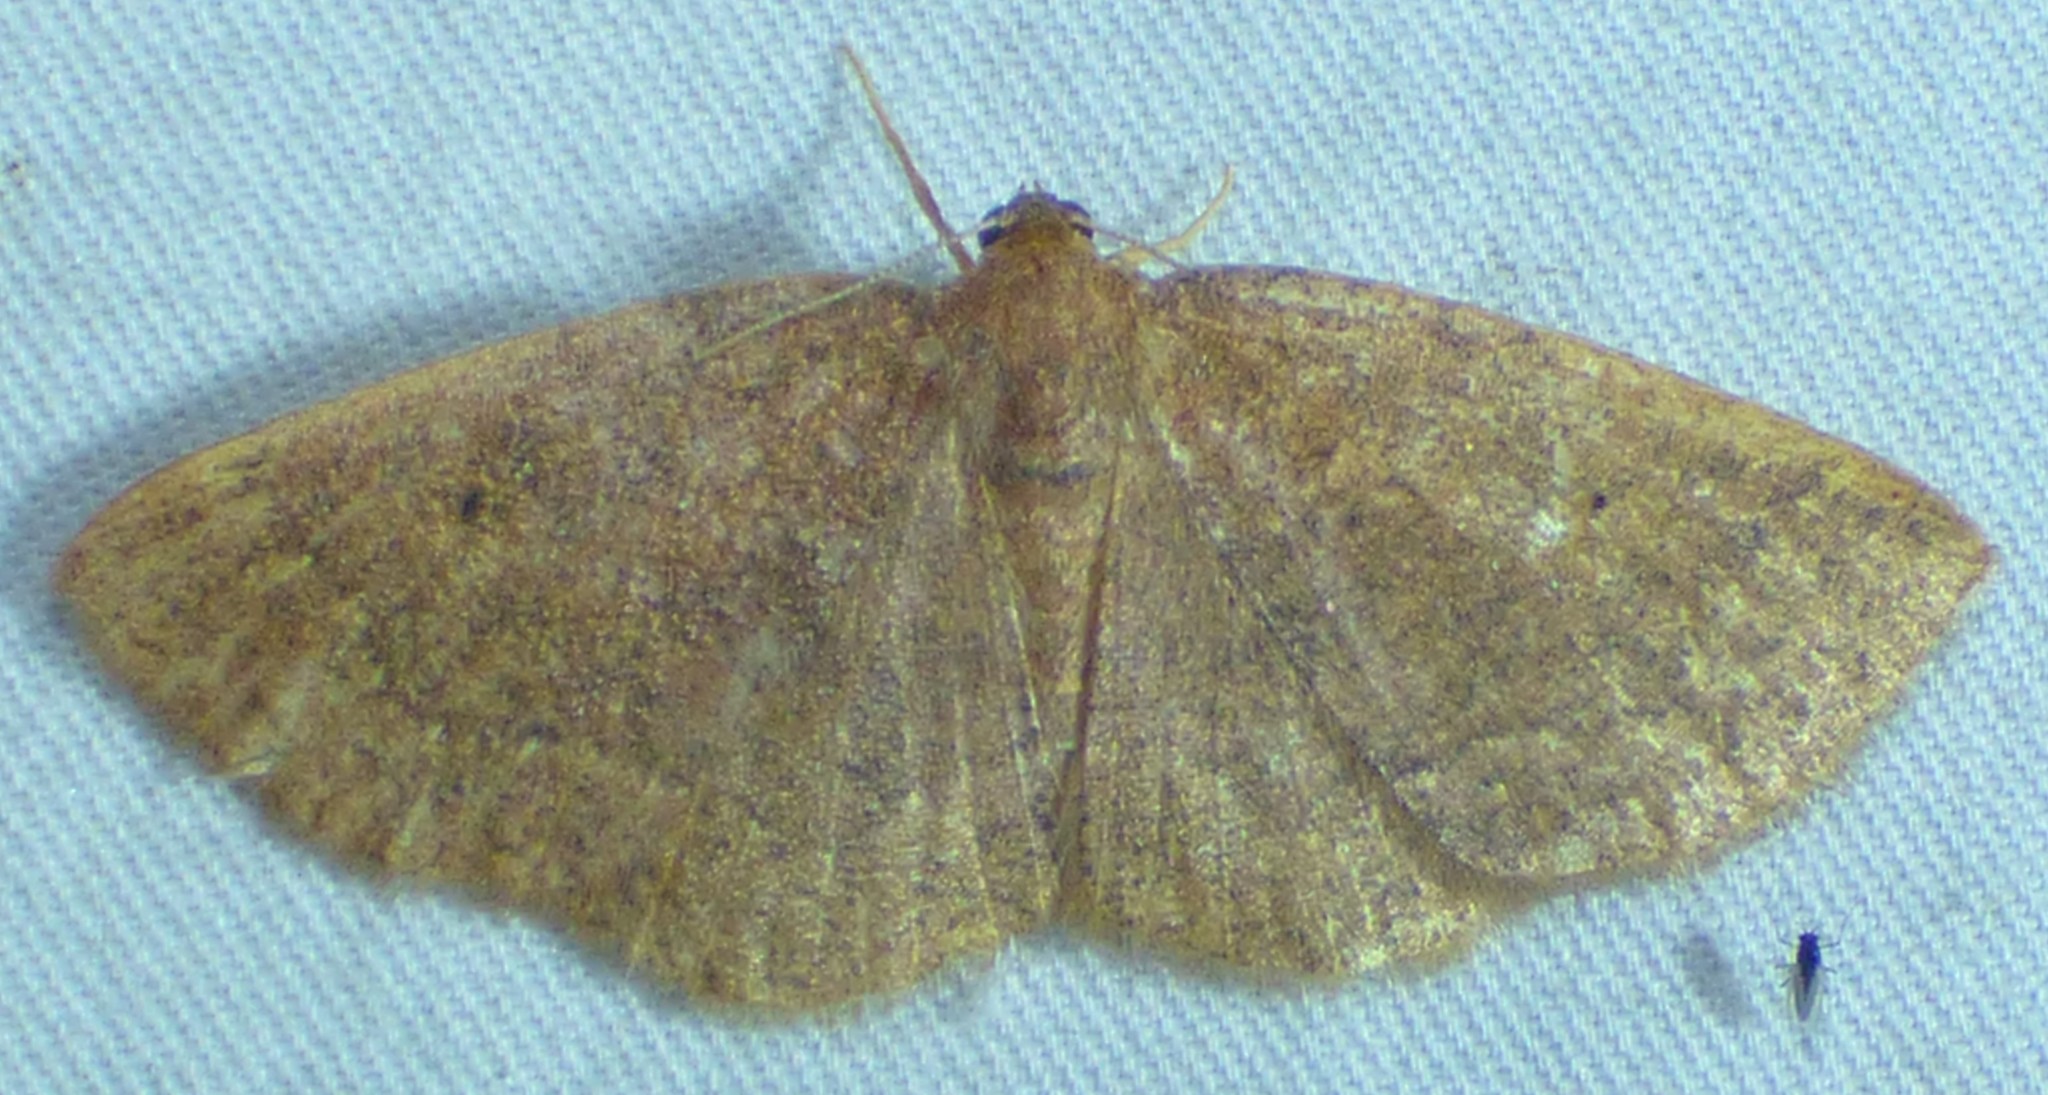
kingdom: Animalia
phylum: Arthropoda
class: Insecta
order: Lepidoptera
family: Geometridae
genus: Ilexia
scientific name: Ilexia intractata
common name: Black-dotted ruddy moth
